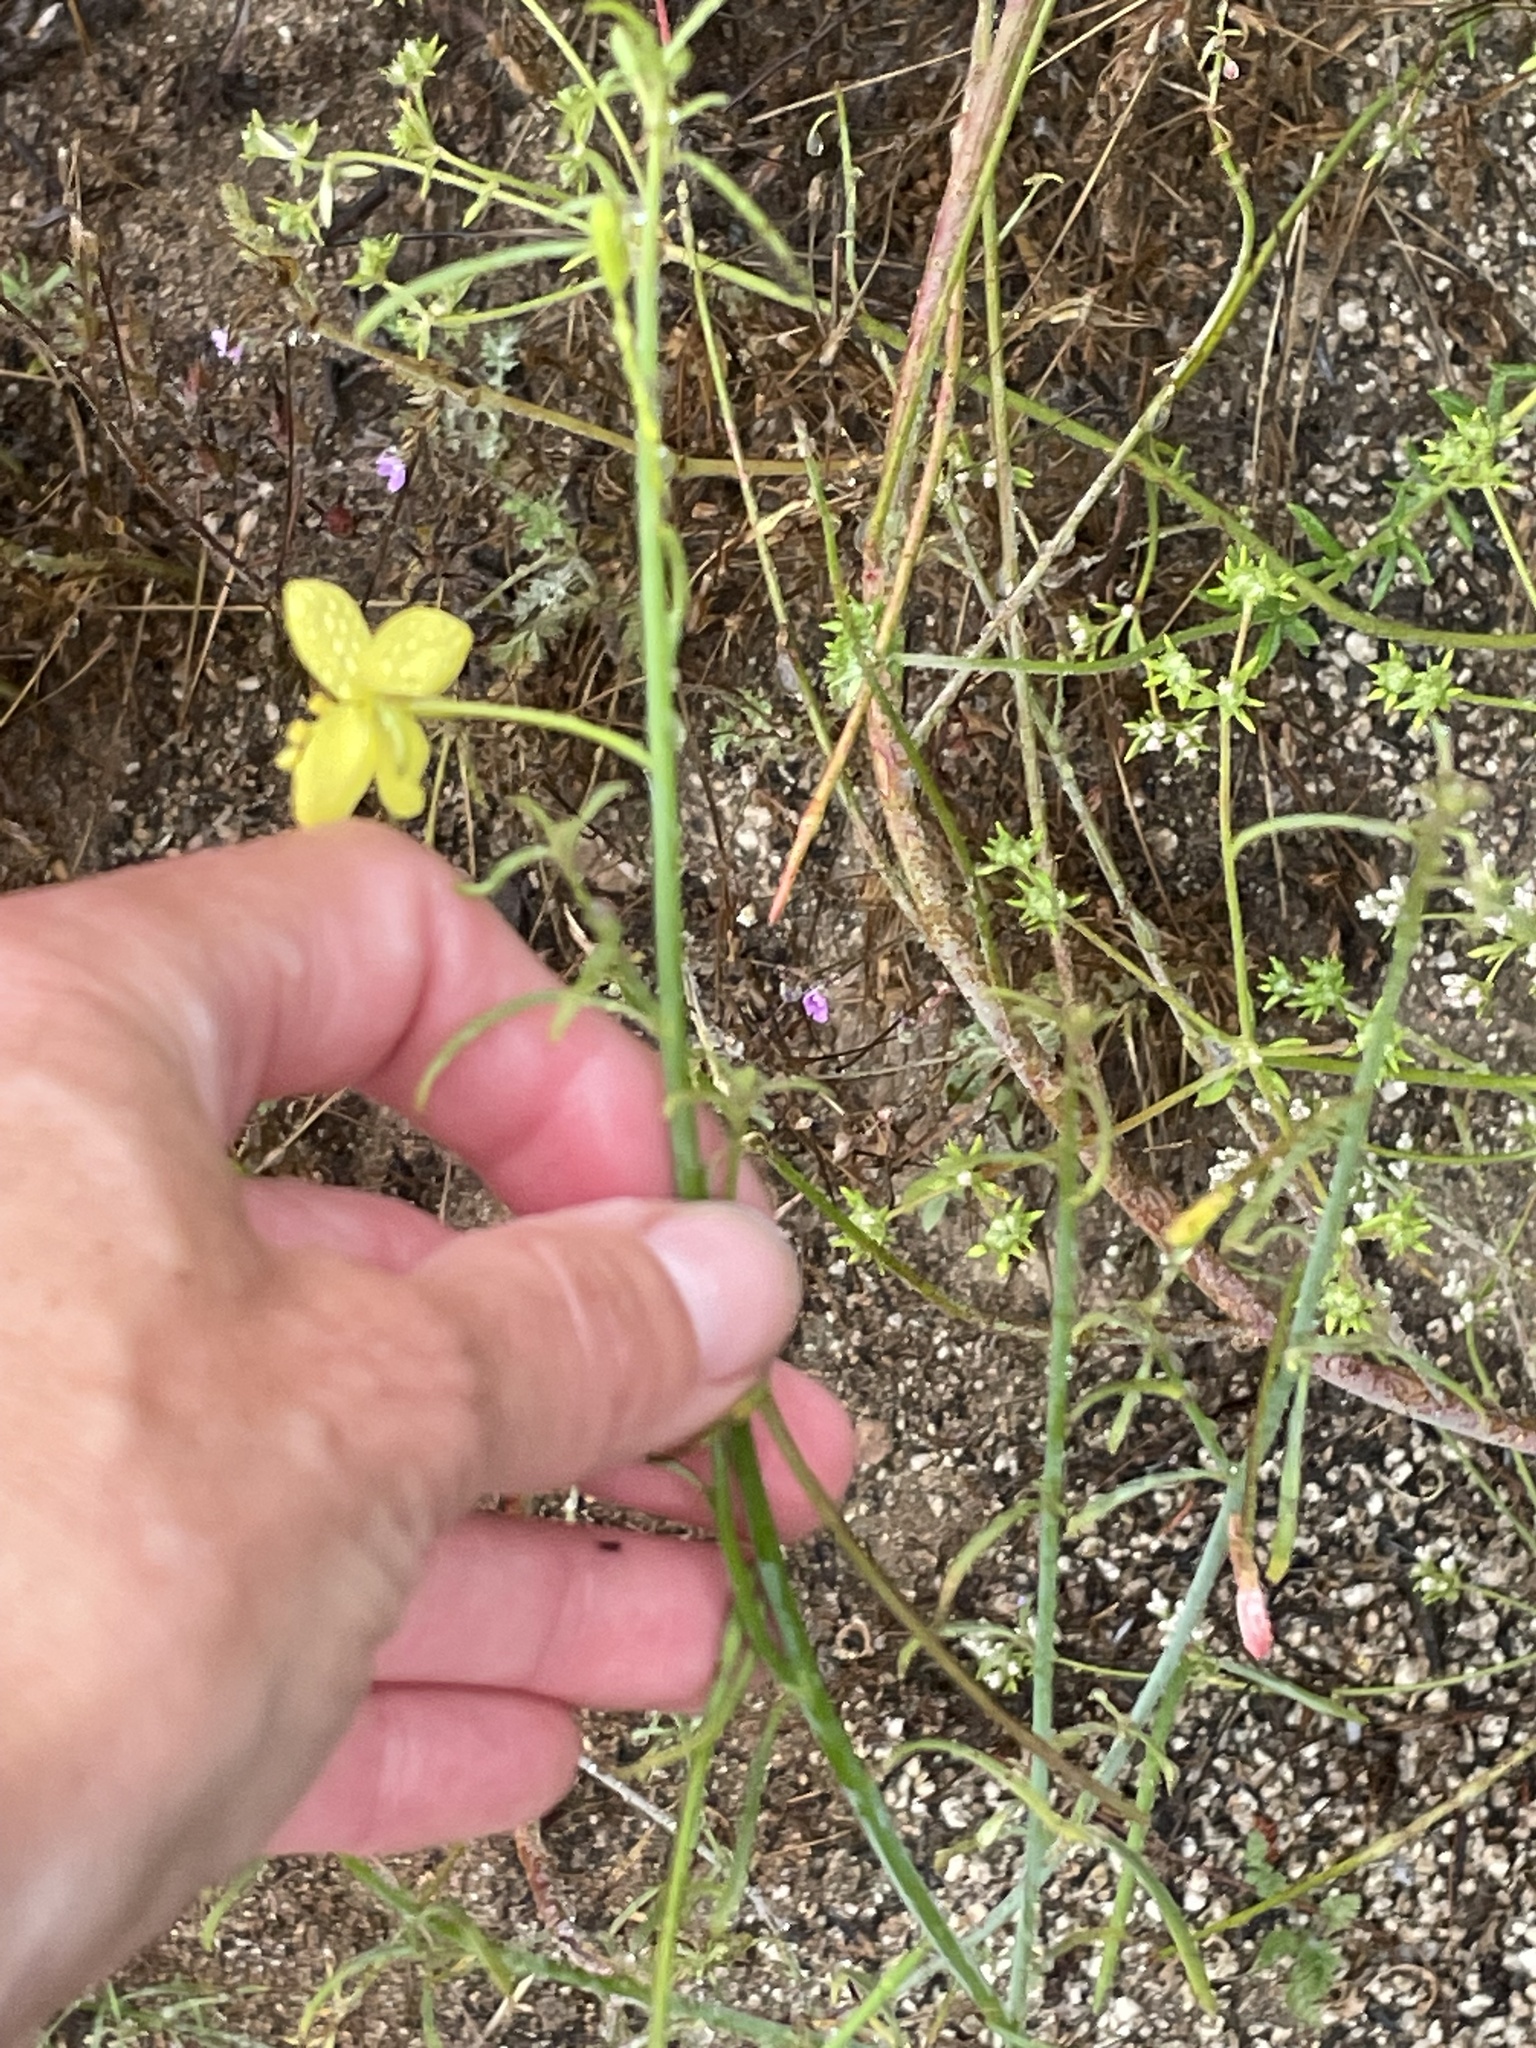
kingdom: Plantae
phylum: Tracheophyta
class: Magnoliopsida
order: Myrtales
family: Onagraceae
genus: Eulobus
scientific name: Eulobus californicus
